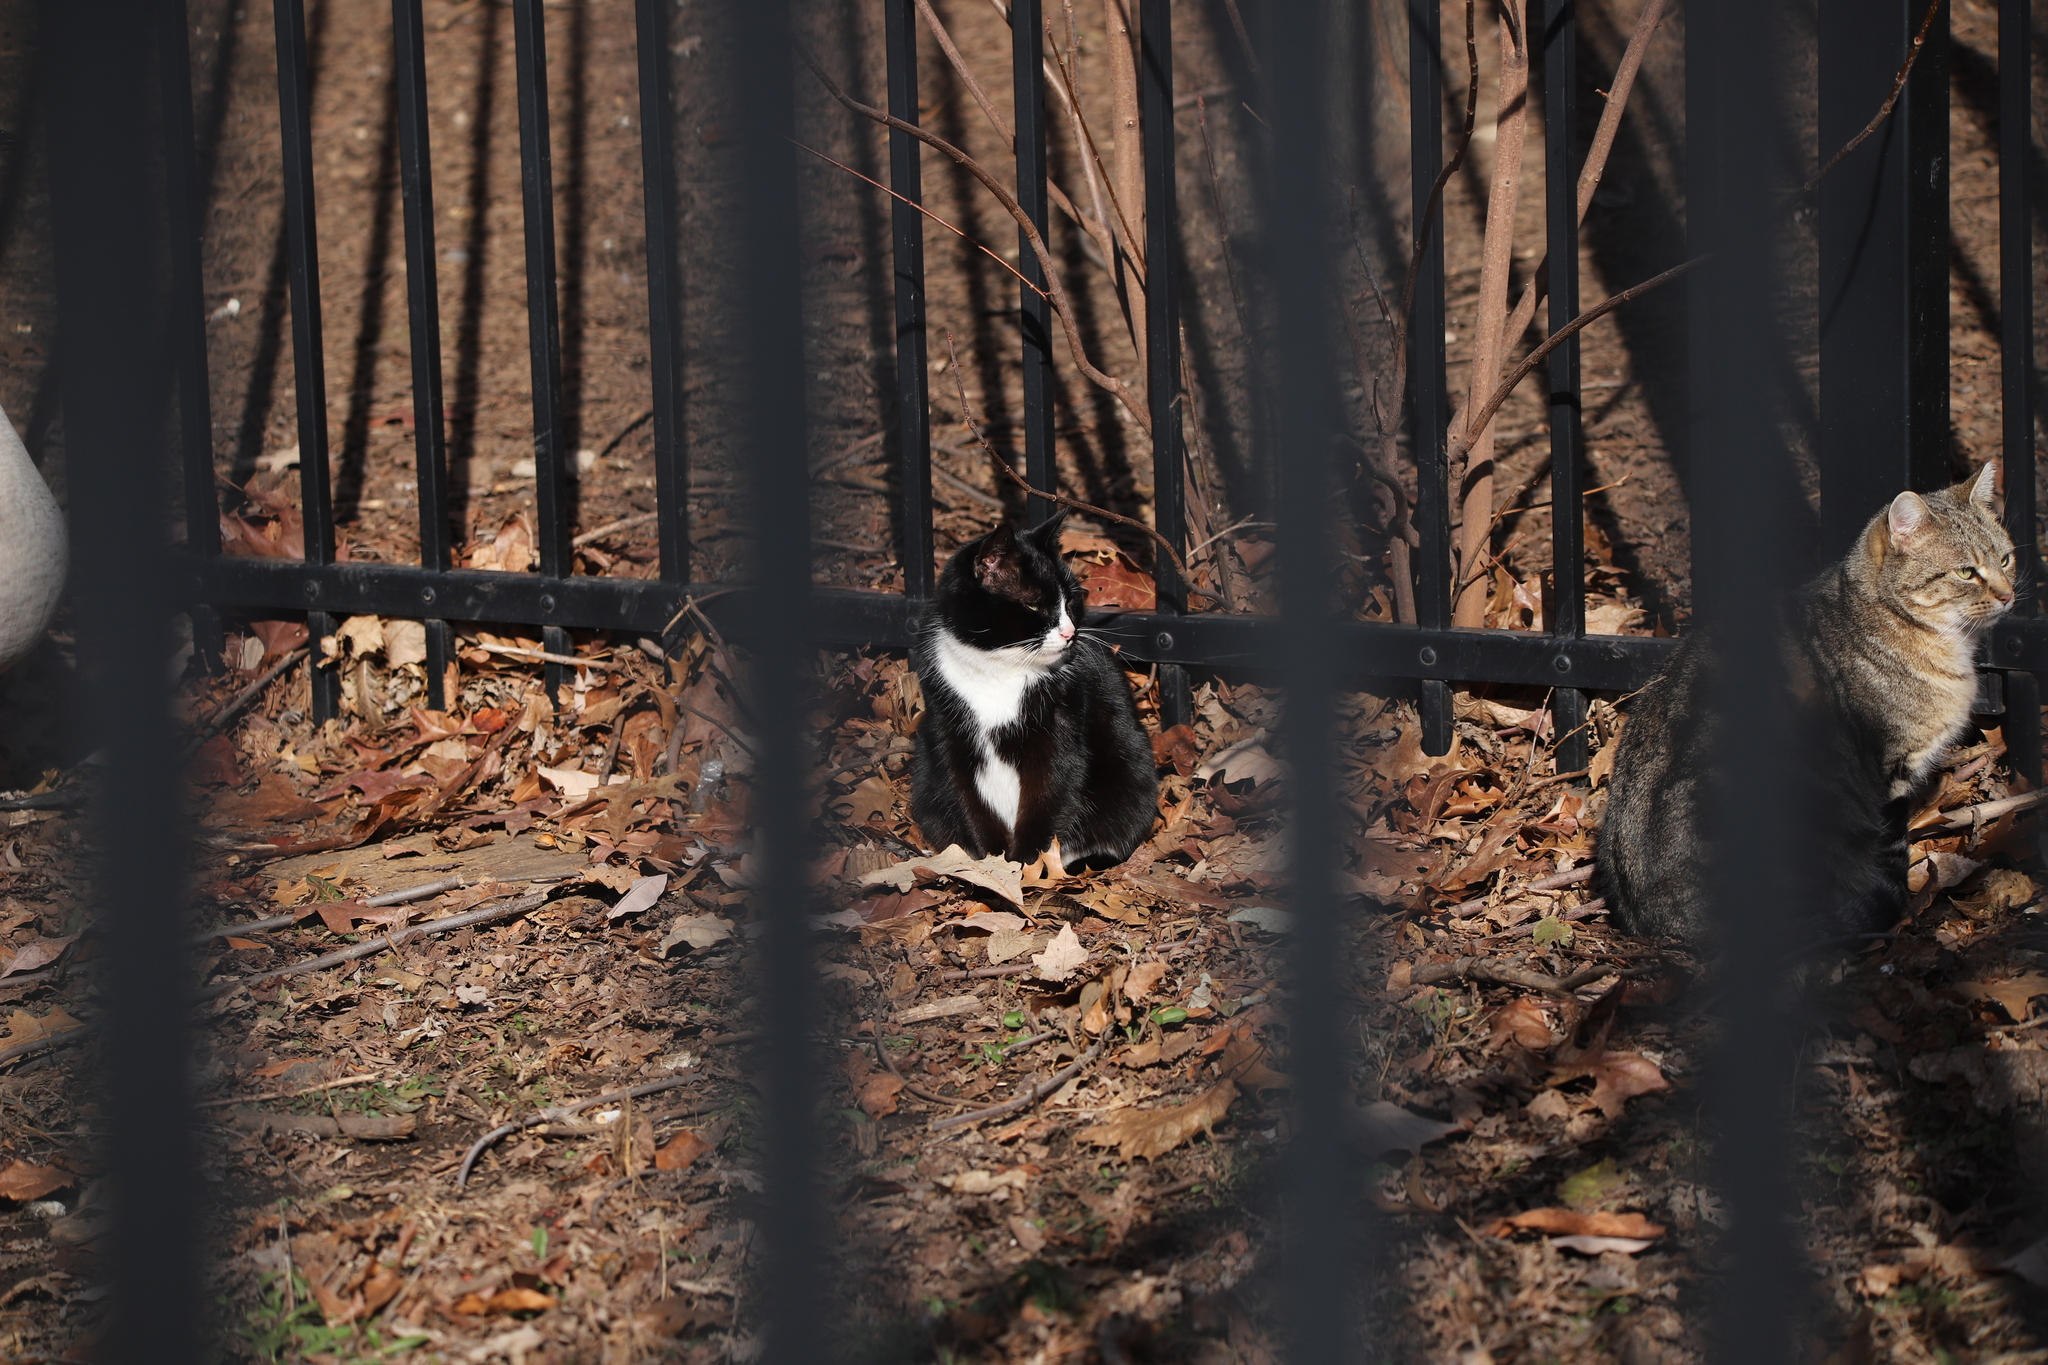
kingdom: Animalia
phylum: Chordata
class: Mammalia
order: Carnivora
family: Felidae
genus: Felis
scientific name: Felis catus
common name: Domestic cat
